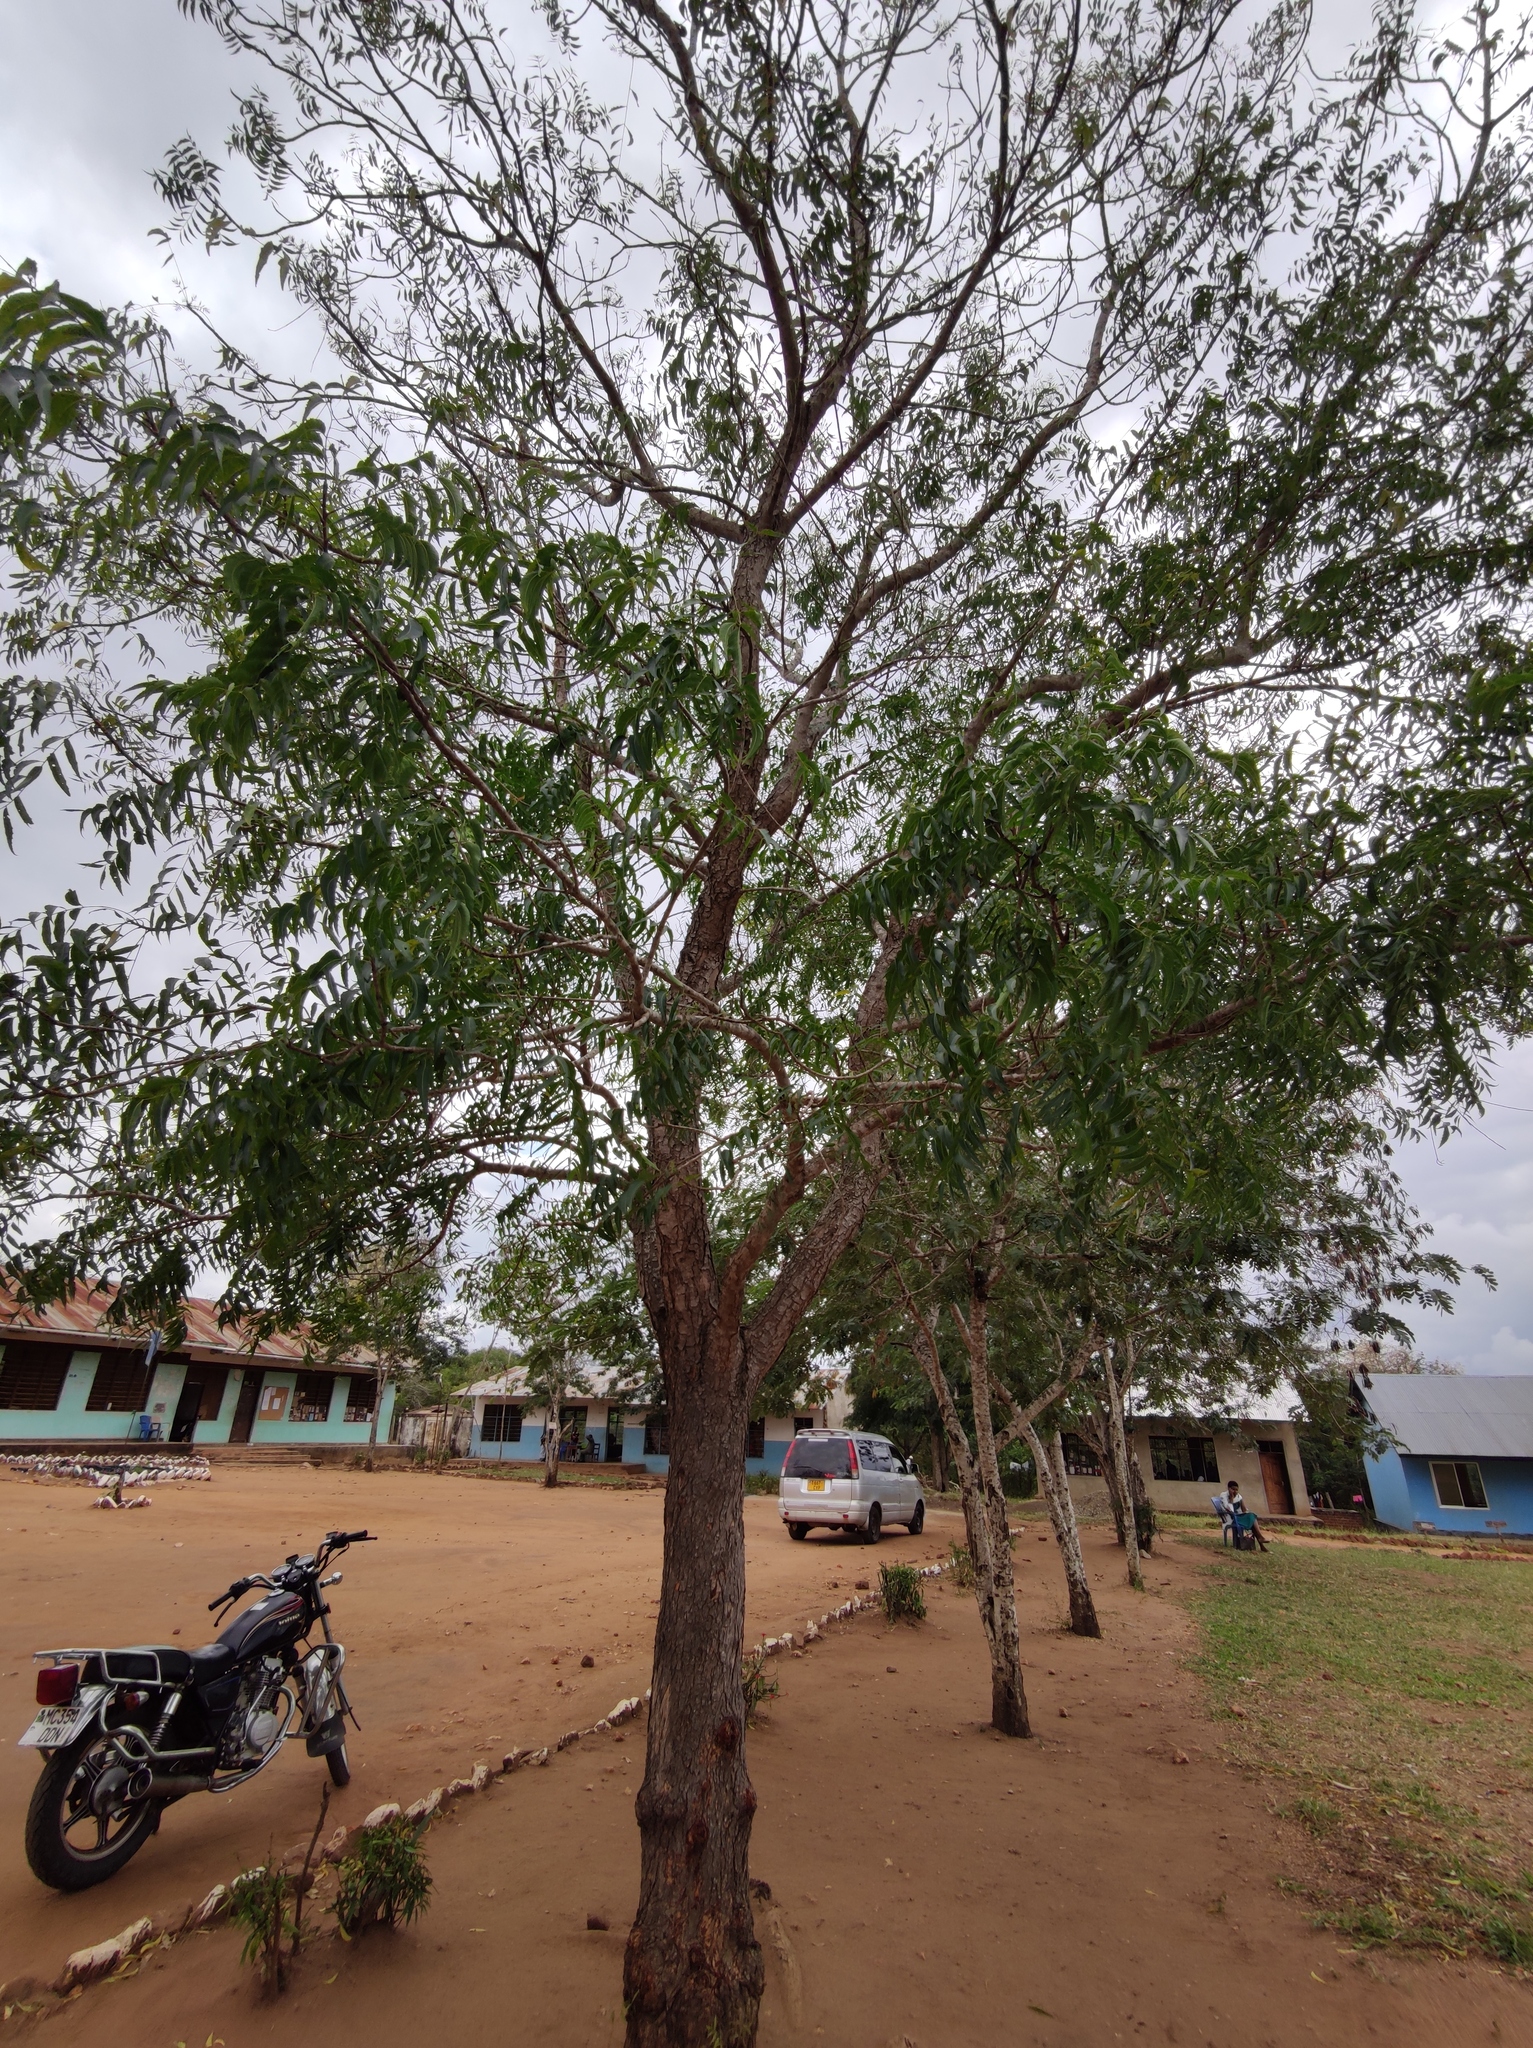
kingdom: Plantae
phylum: Tracheophyta
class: Magnoliopsida
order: Sapindales
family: Meliaceae
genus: Azadirachta
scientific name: Azadirachta indica
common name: Neem
